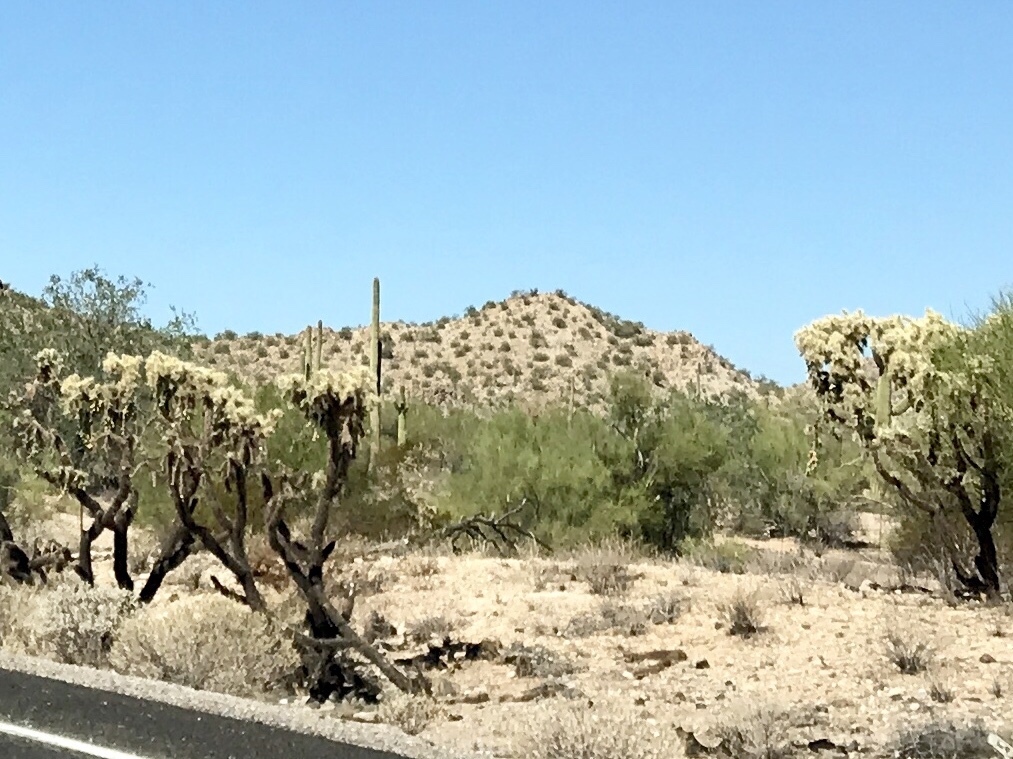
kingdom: Plantae
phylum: Tracheophyta
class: Magnoliopsida
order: Caryophyllales
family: Cactaceae
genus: Cylindropuntia
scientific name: Cylindropuntia fulgida
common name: Jumping cholla
